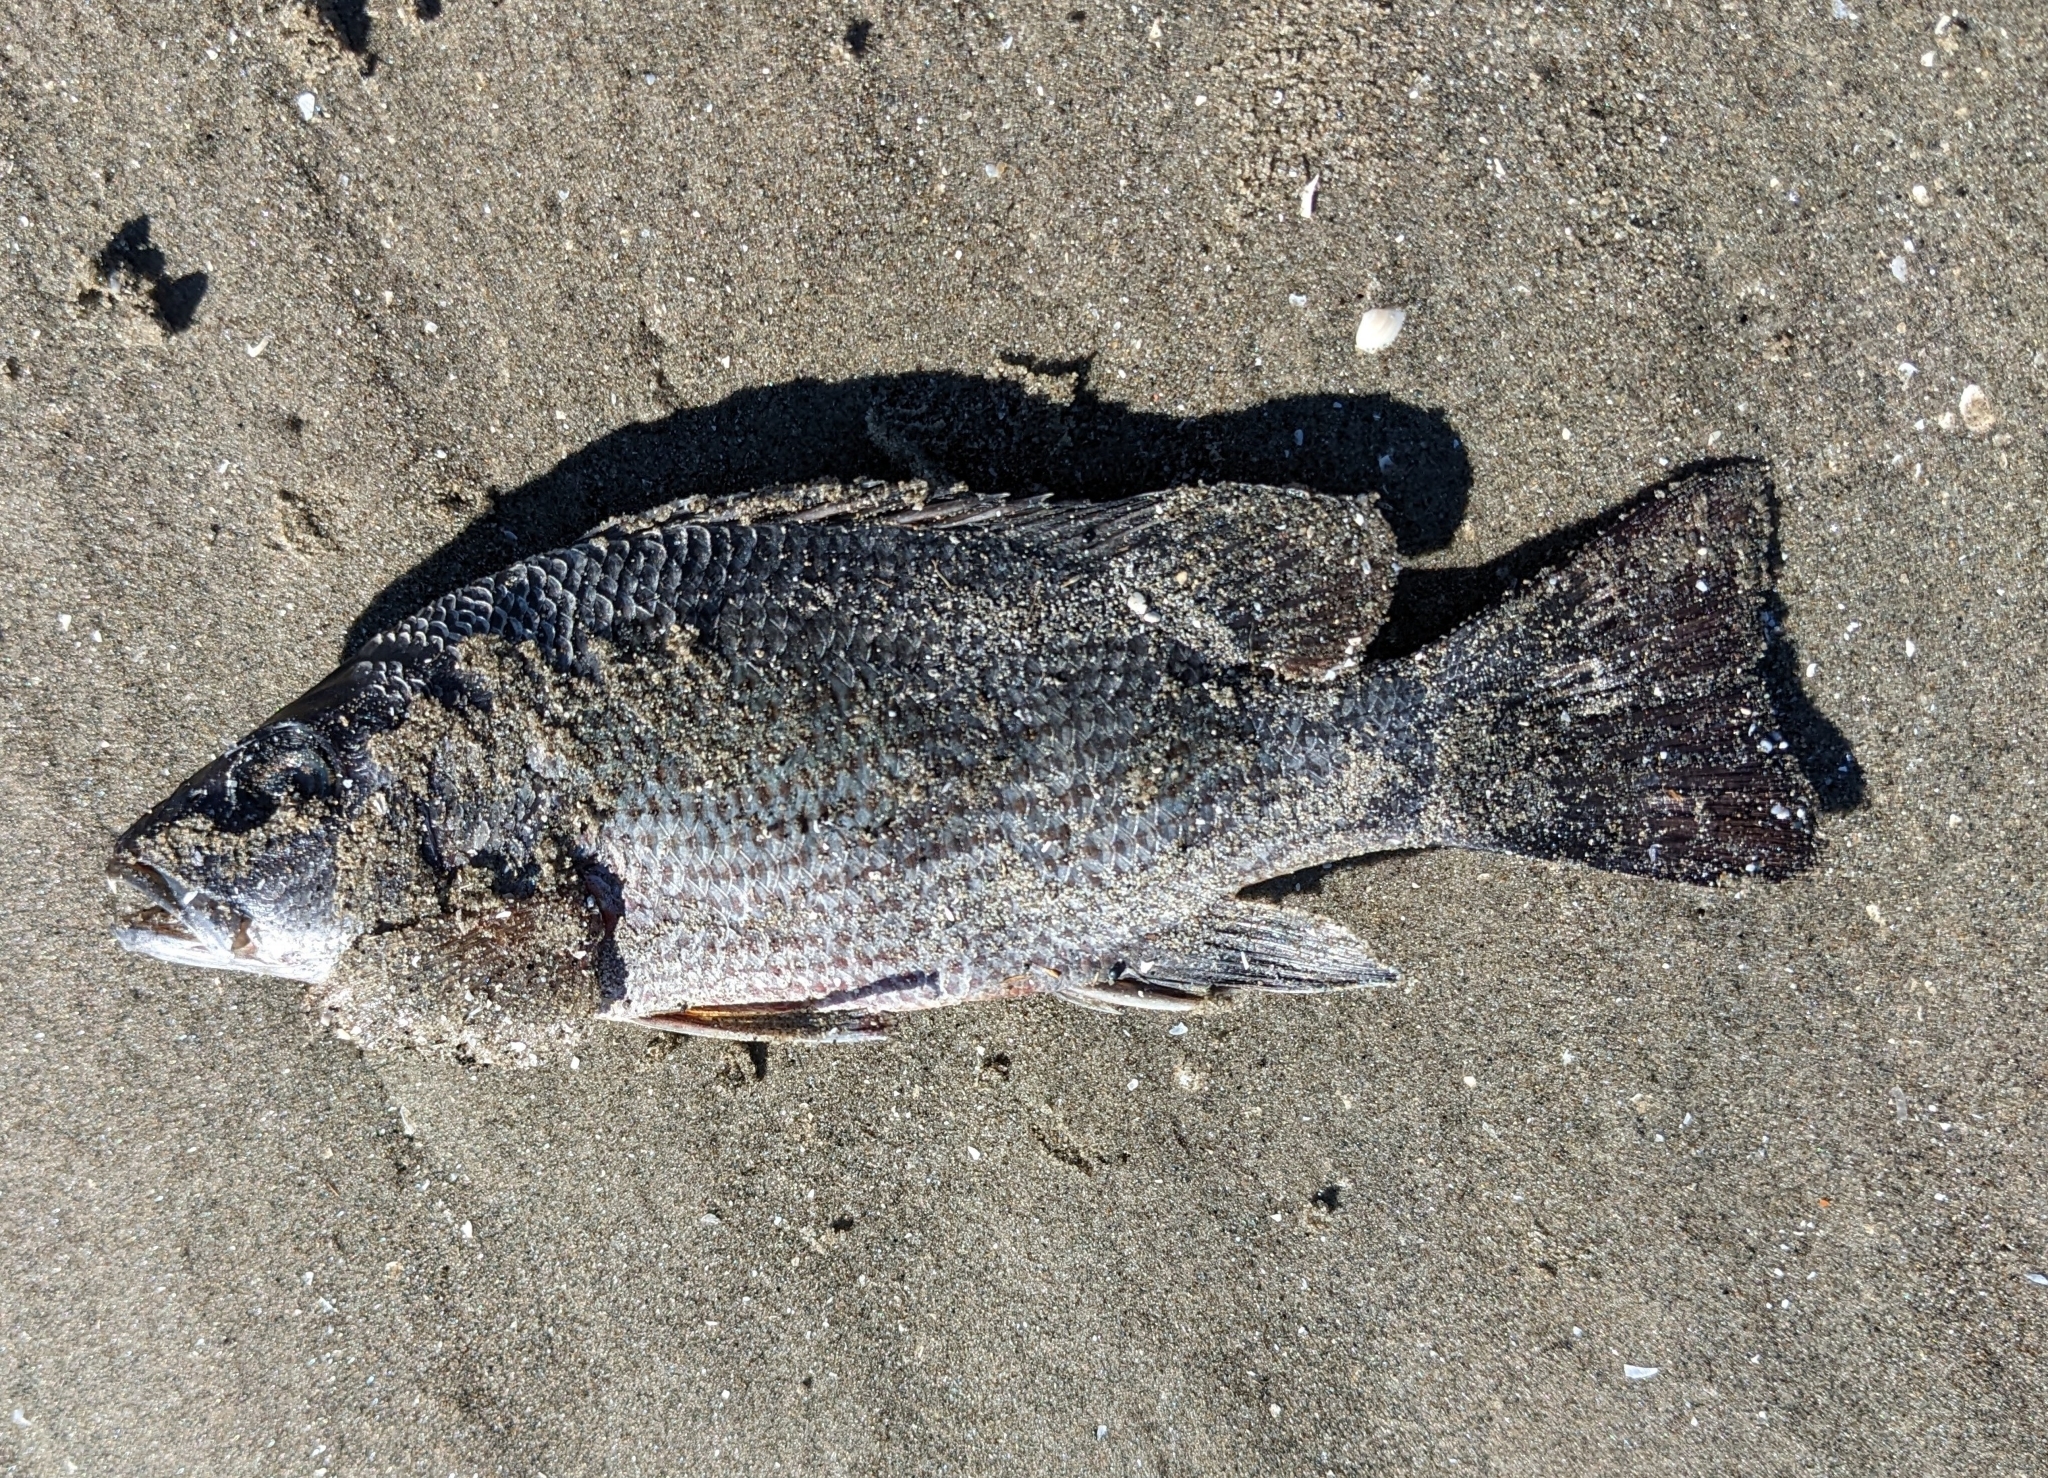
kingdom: Animalia
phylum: Chordata
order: Perciformes
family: Lutjanidae
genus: Lutjanus
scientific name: Lutjanus griseus
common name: Gray snapper
